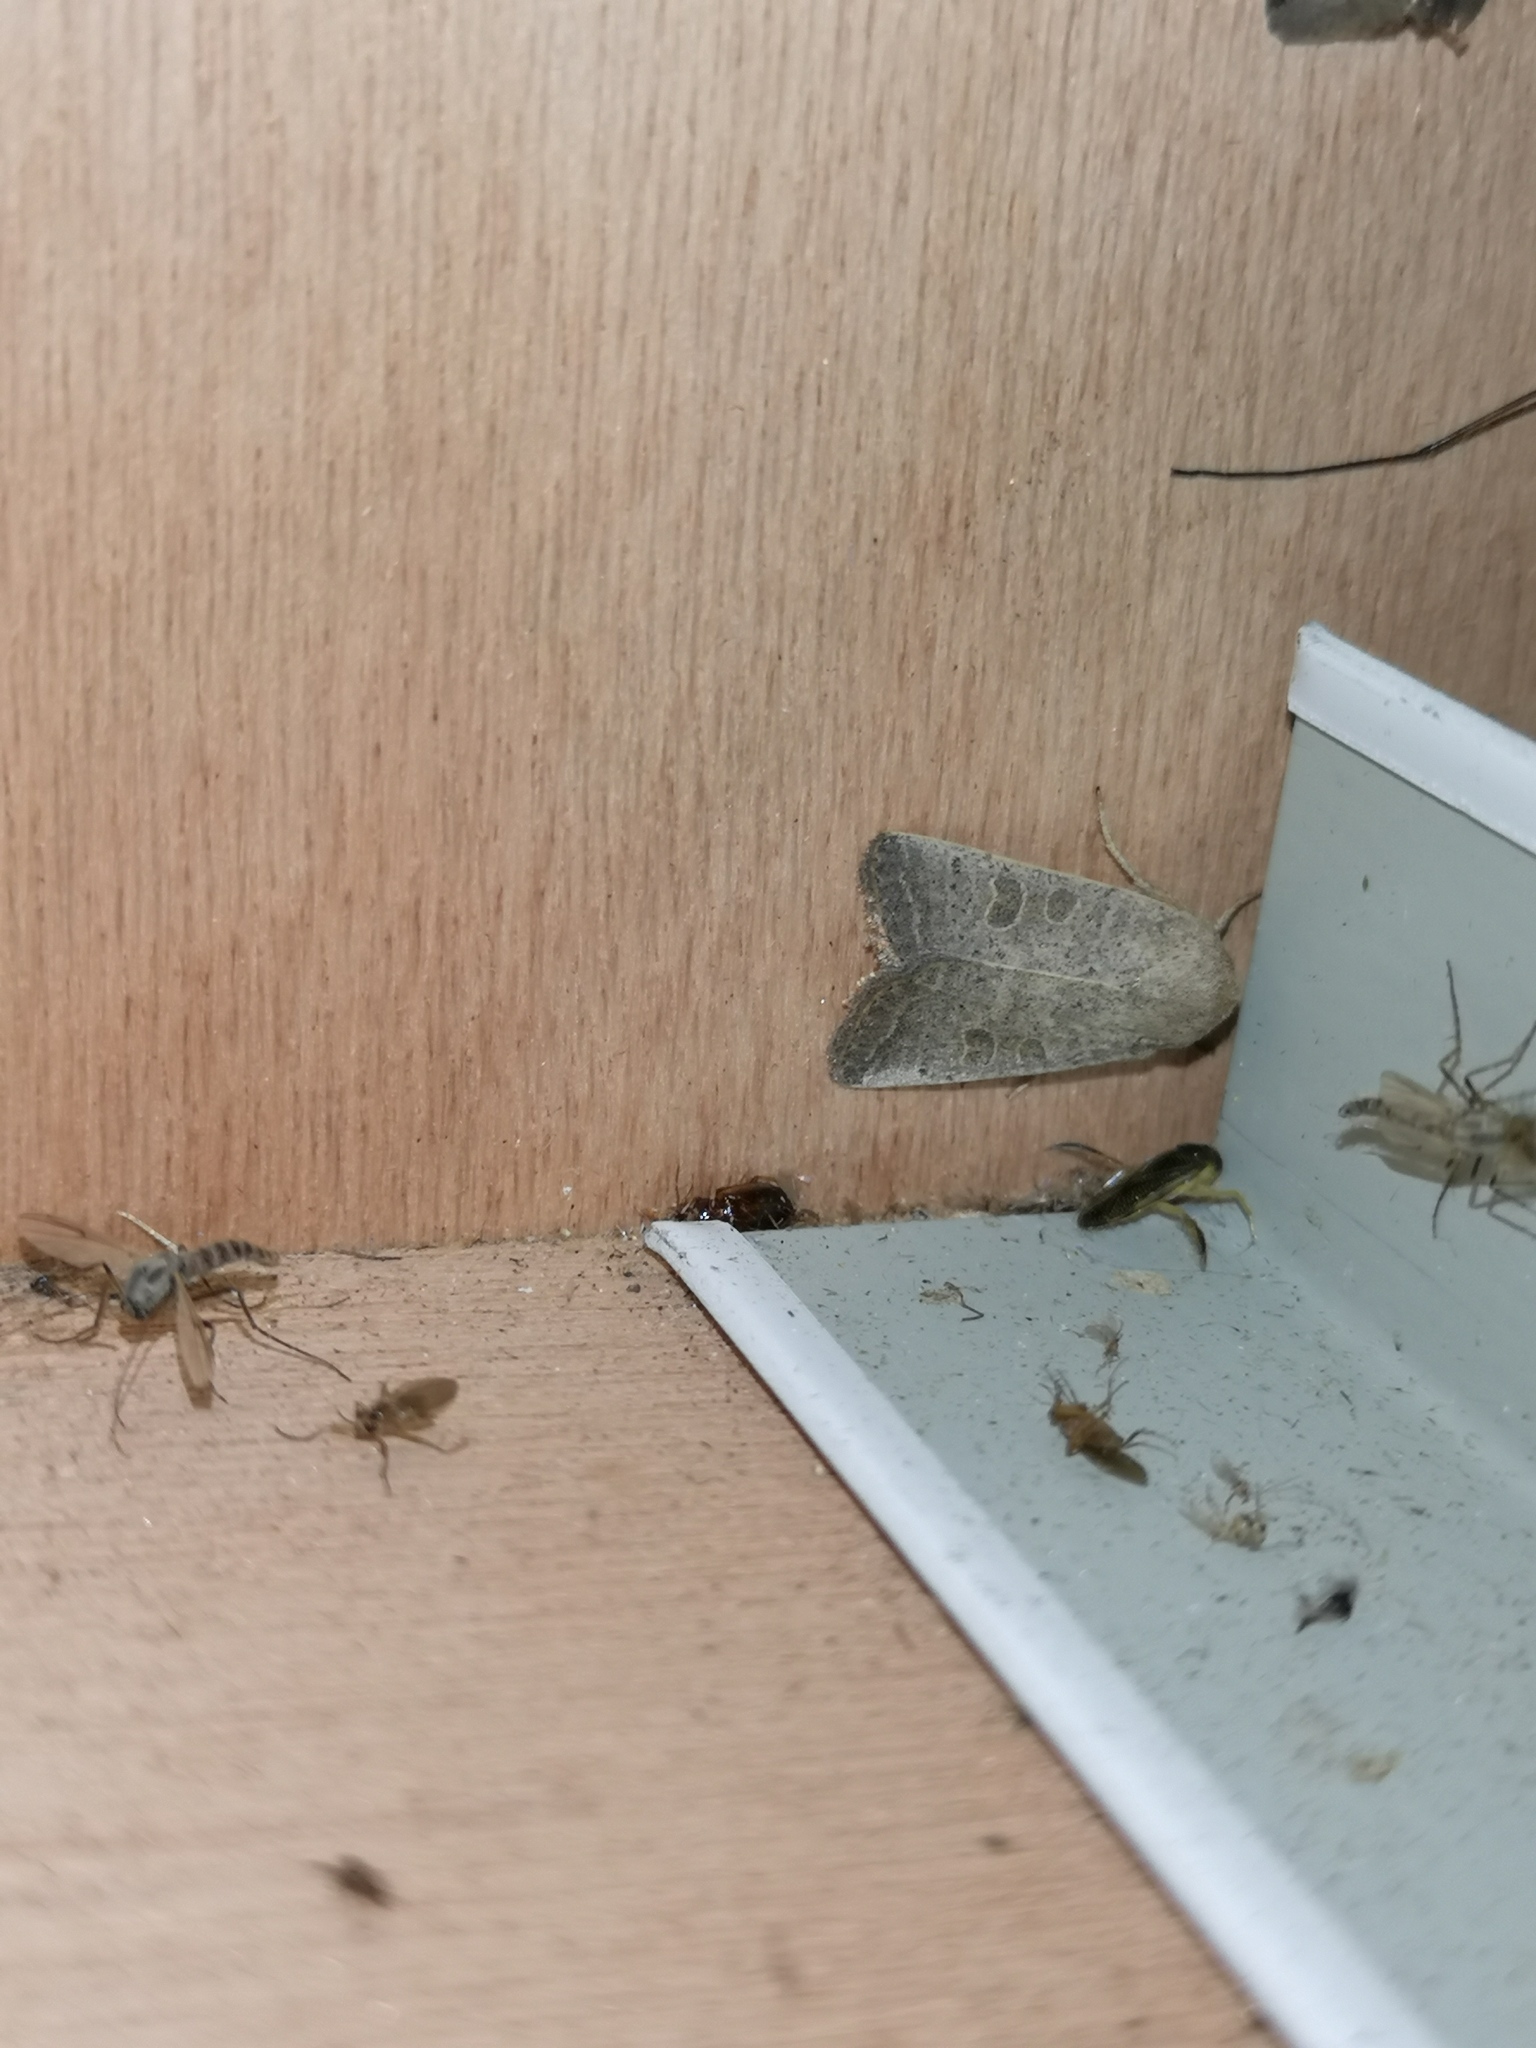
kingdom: Animalia
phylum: Arthropoda
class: Insecta
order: Lepidoptera
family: Noctuidae
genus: Hoplodrina
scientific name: Hoplodrina ambigua
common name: Vine's rustic
